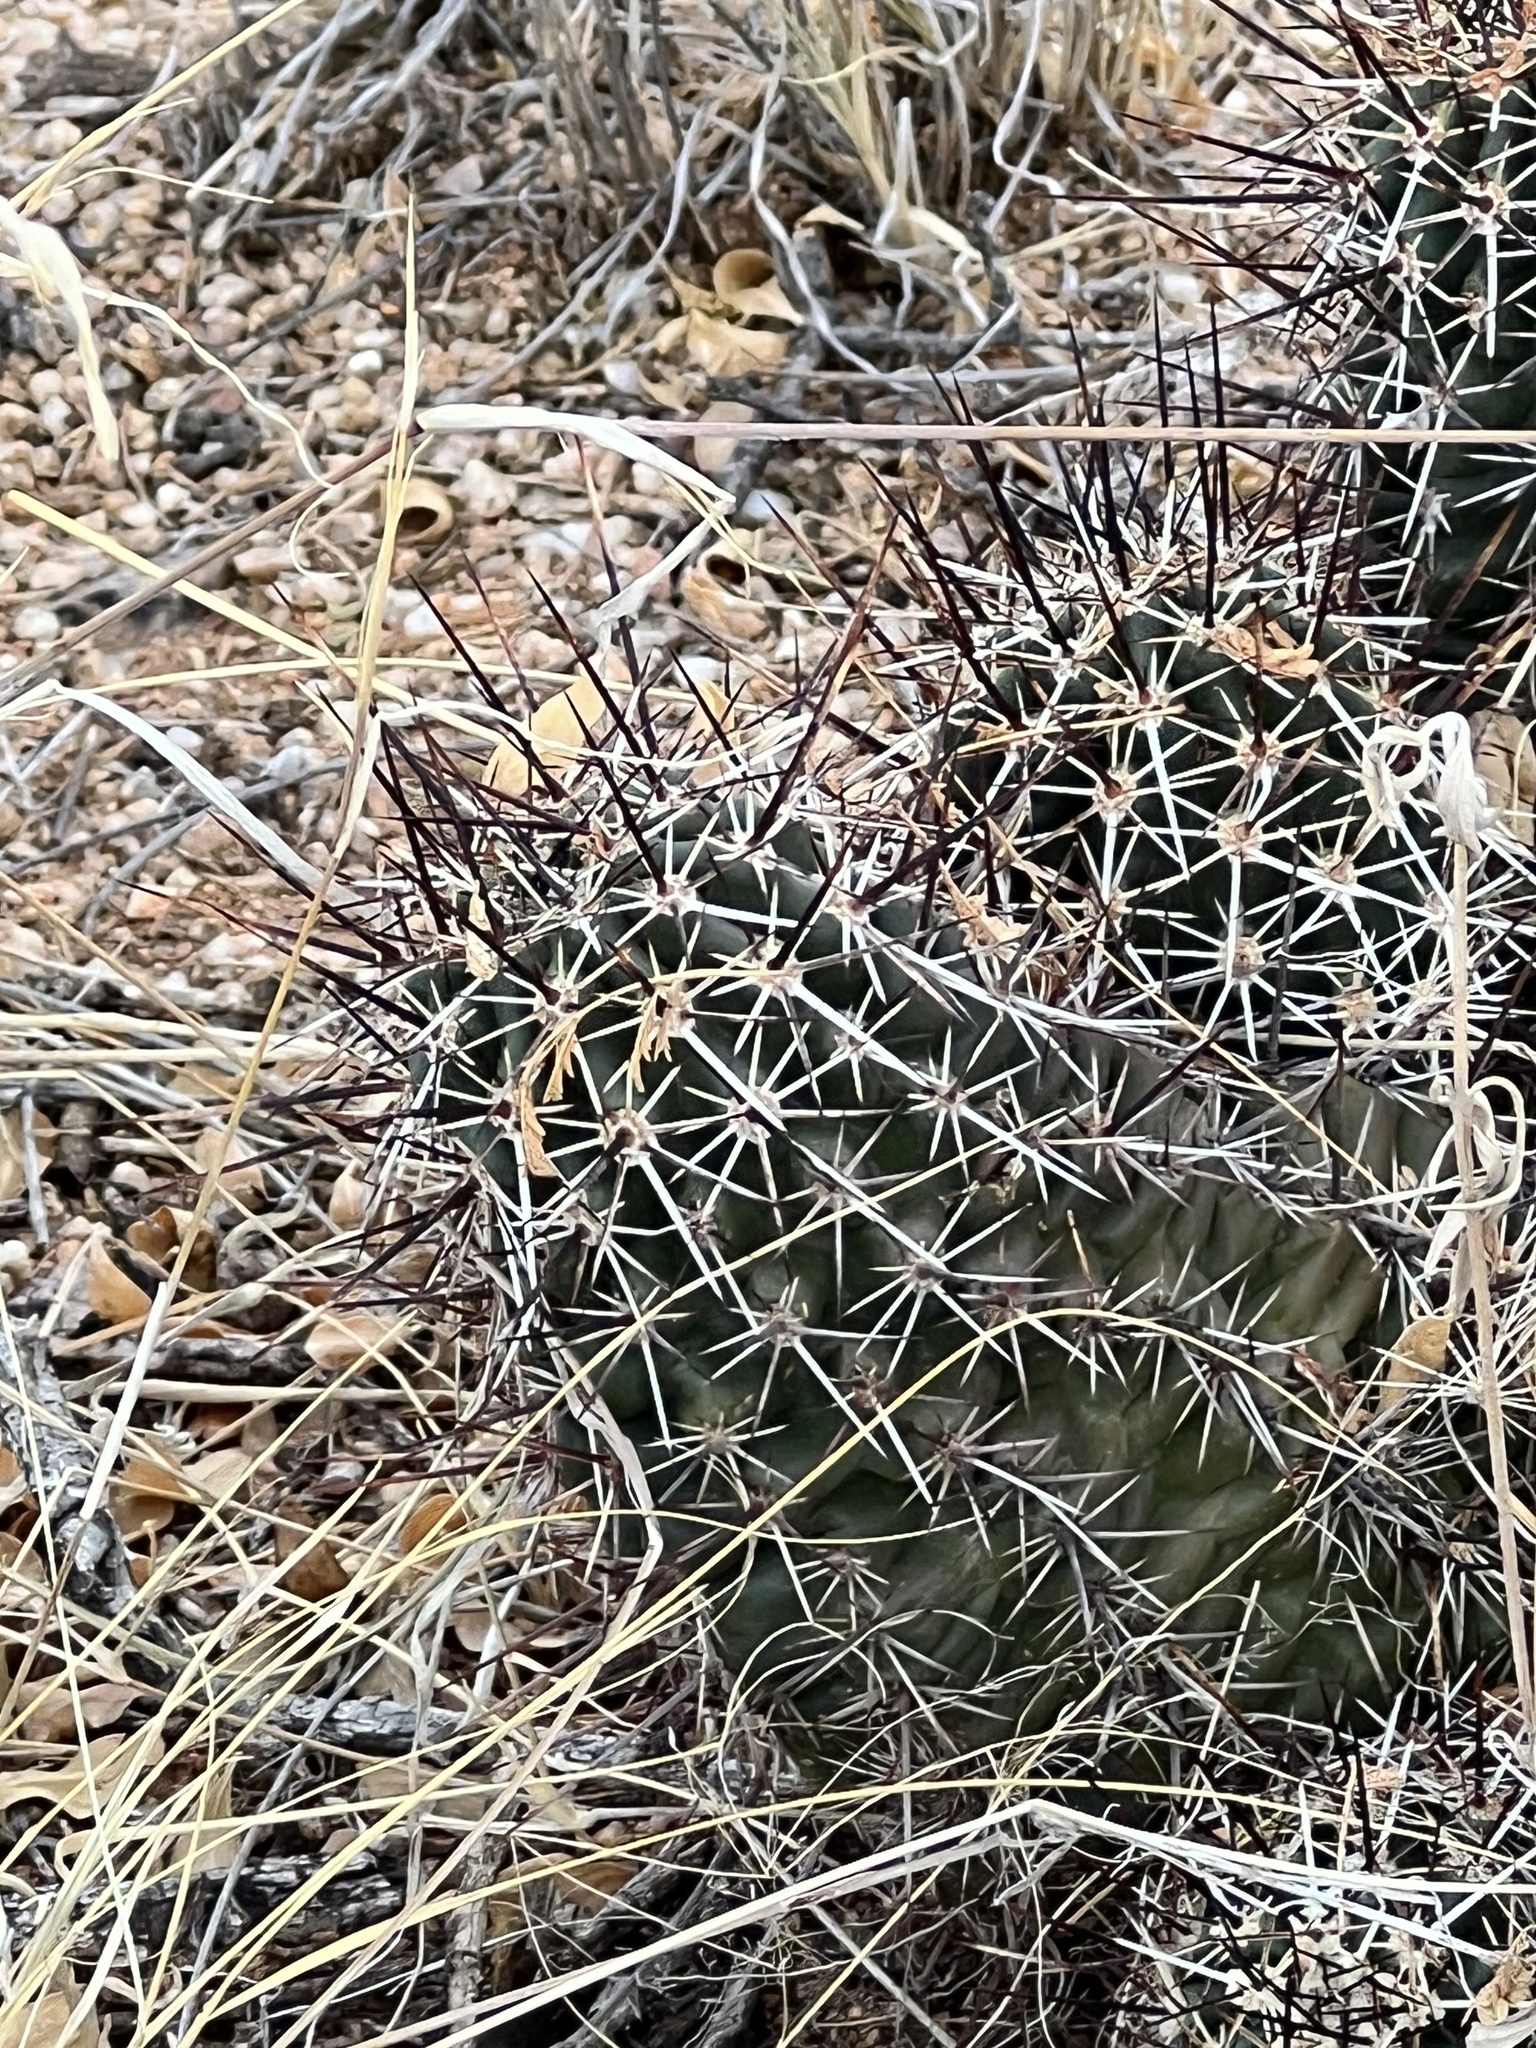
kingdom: Plantae
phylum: Tracheophyta
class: Magnoliopsida
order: Caryophyllales
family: Cactaceae
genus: Echinocereus
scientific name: Echinocereus fasciculatus
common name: Bundle hedgehog
